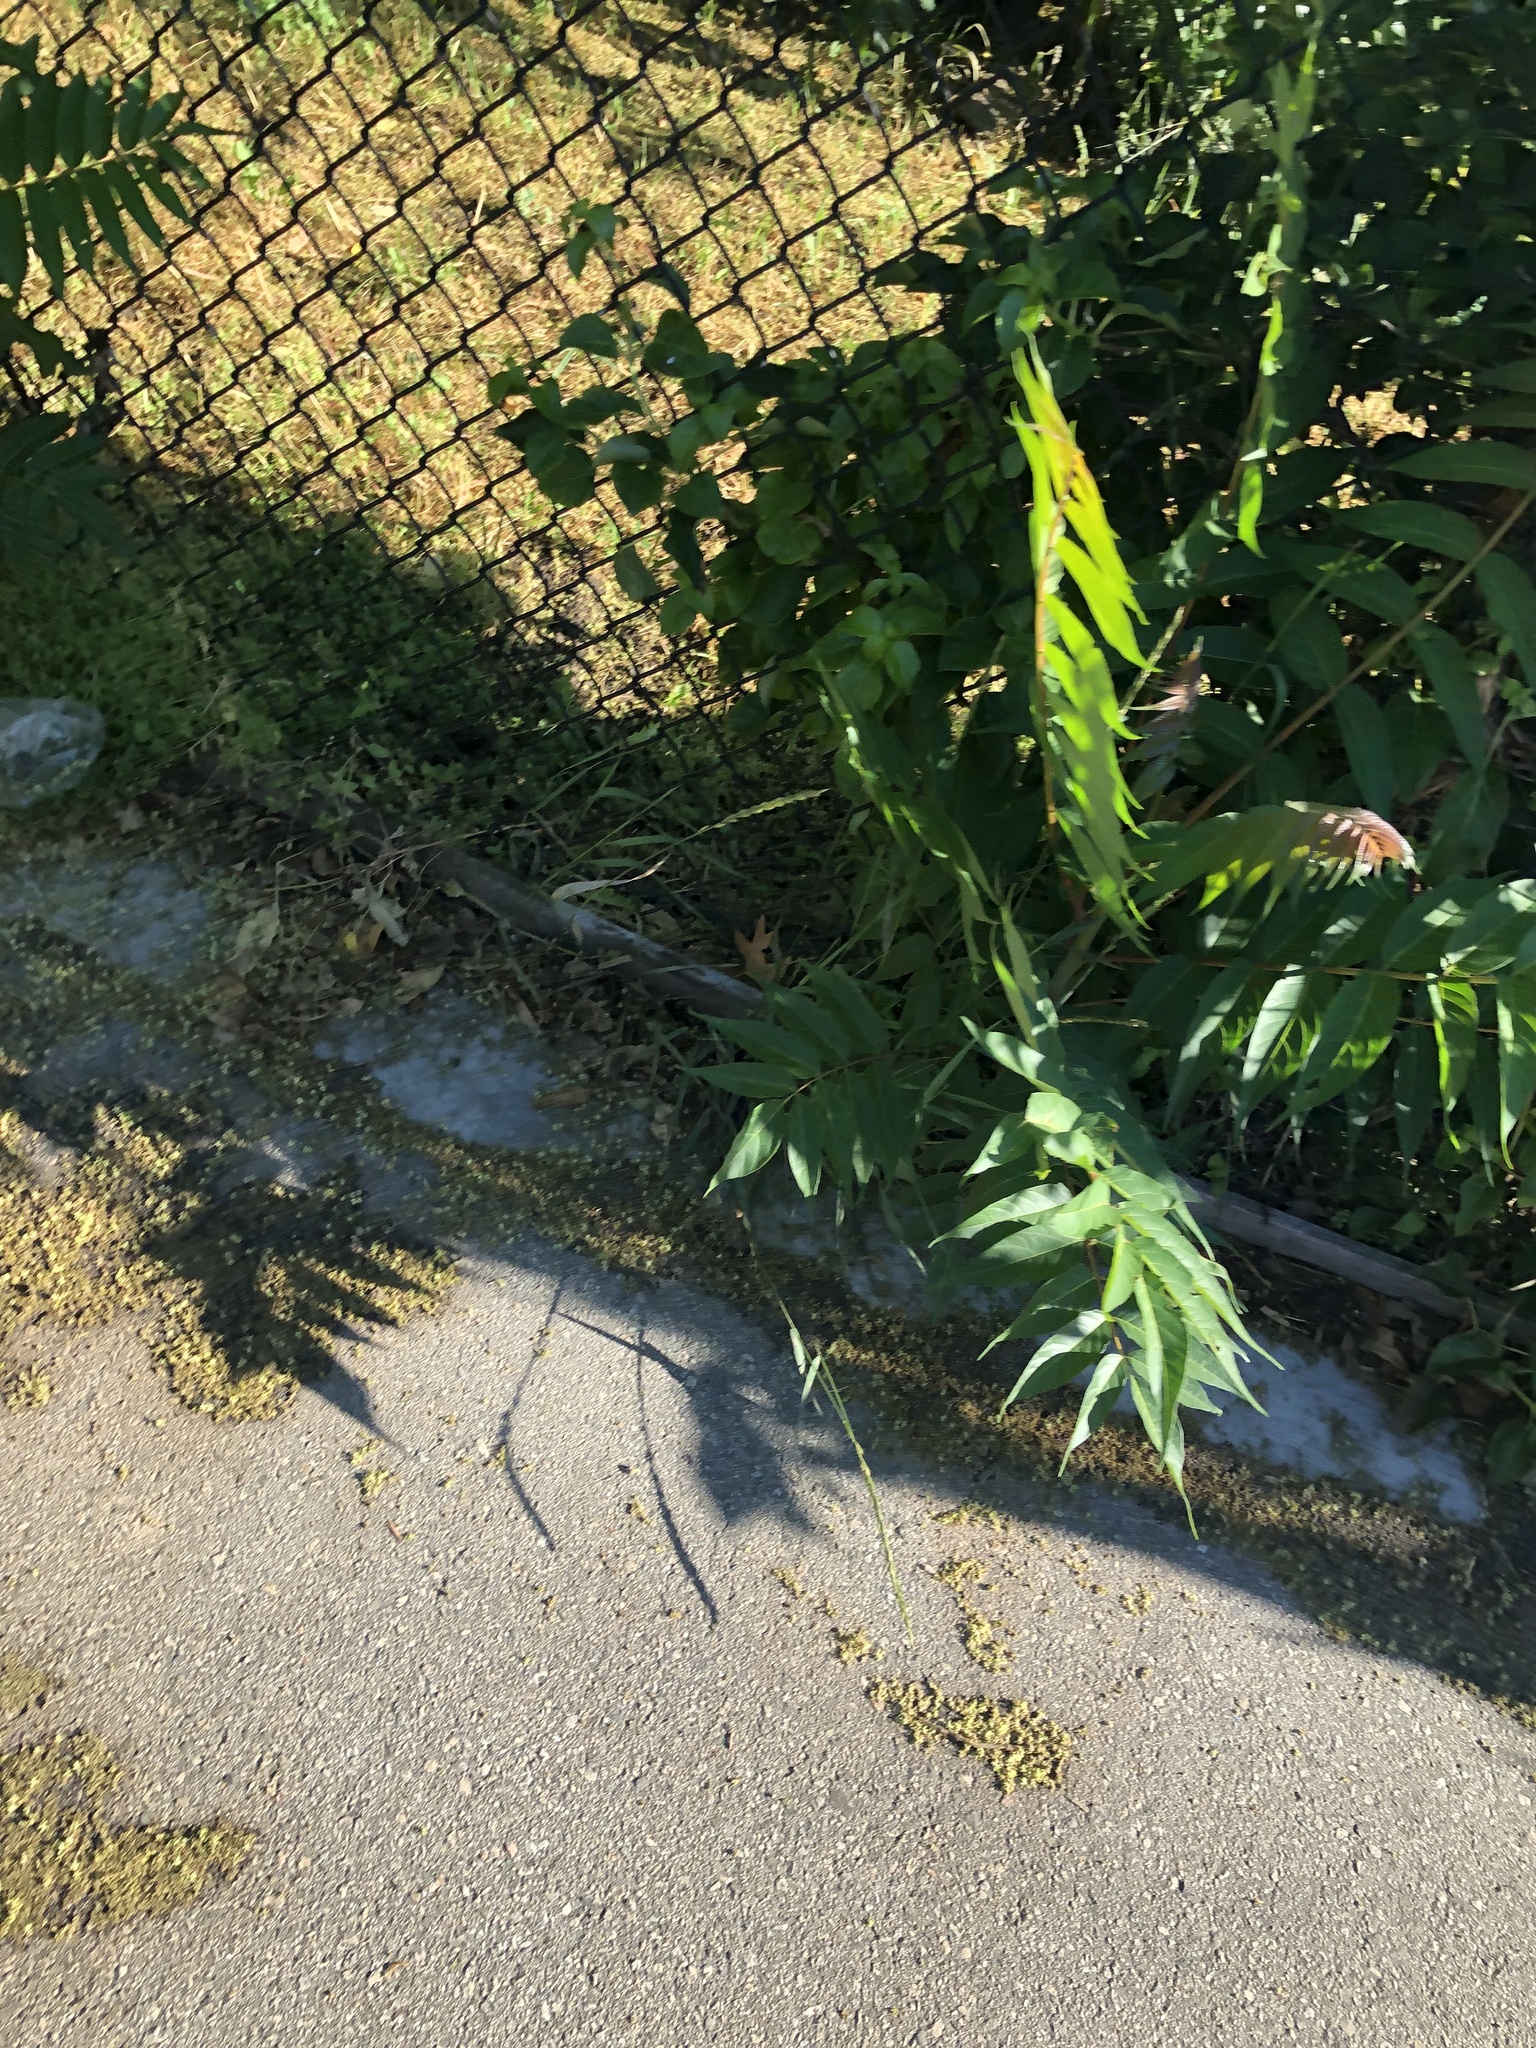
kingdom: Plantae
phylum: Tracheophyta
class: Magnoliopsida
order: Sapindales
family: Simaroubaceae
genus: Ailanthus
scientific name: Ailanthus altissima
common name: Tree-of-heaven
